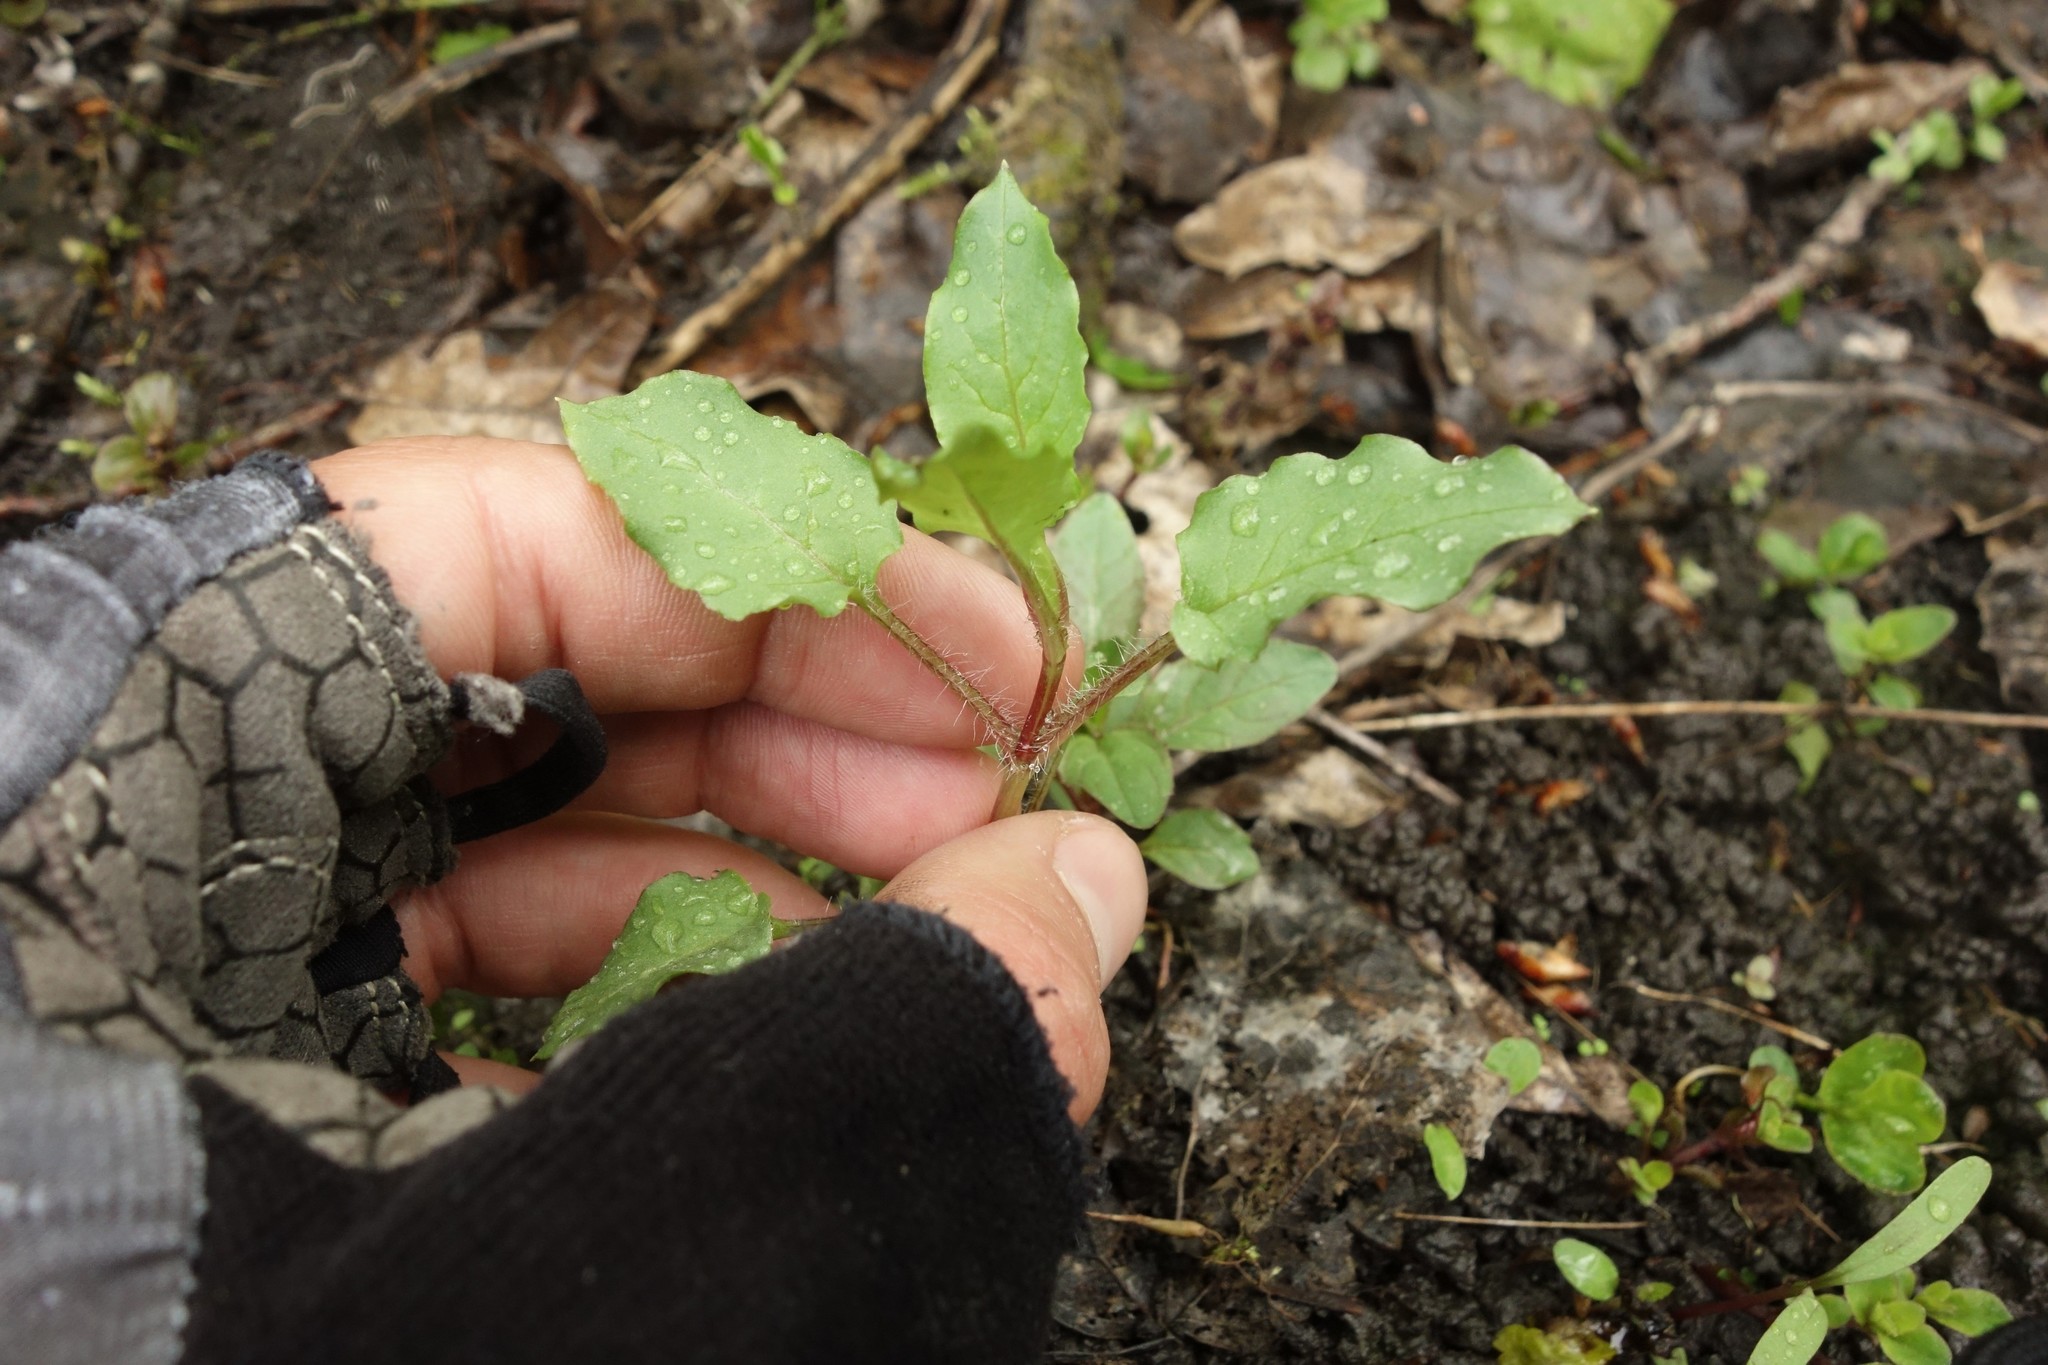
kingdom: Plantae
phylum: Tracheophyta
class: Magnoliopsida
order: Caryophyllales
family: Caryophyllaceae
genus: Stellaria
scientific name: Stellaria aquatica
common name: Water chickweed
